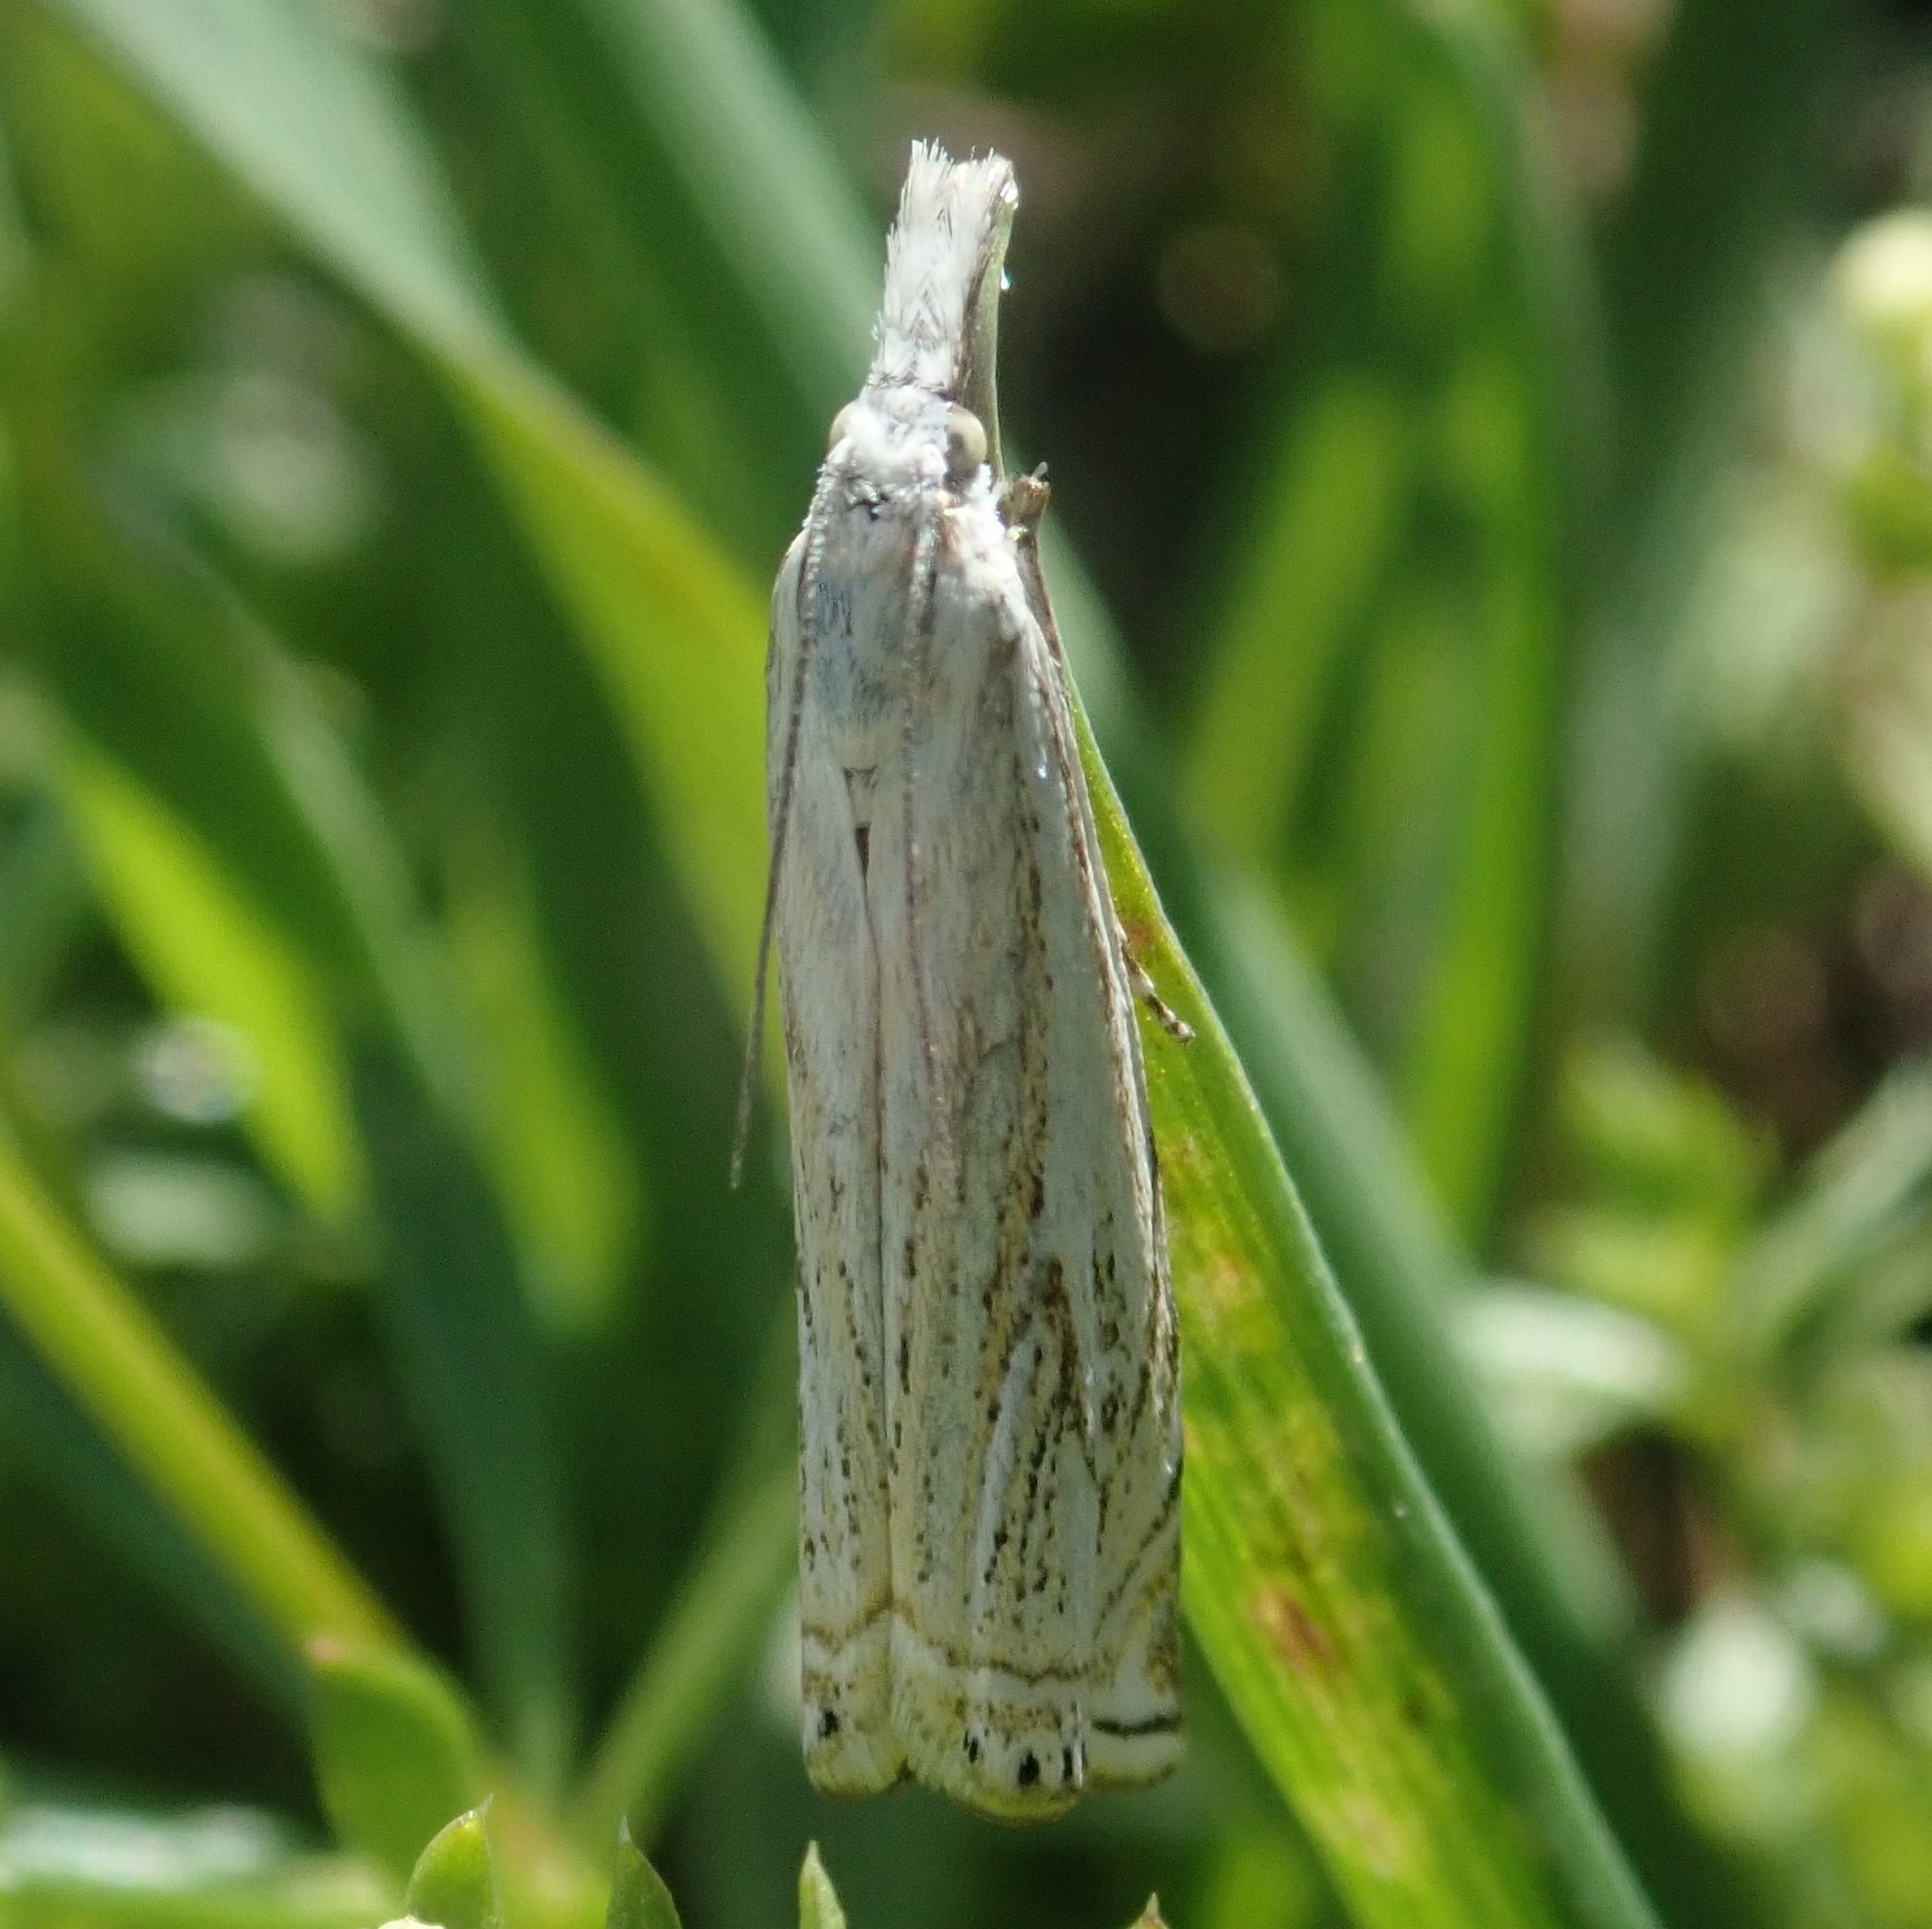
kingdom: Animalia
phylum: Arthropoda
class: Insecta
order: Lepidoptera
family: Crambidae
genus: Crambus
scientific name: Crambus nemorella
